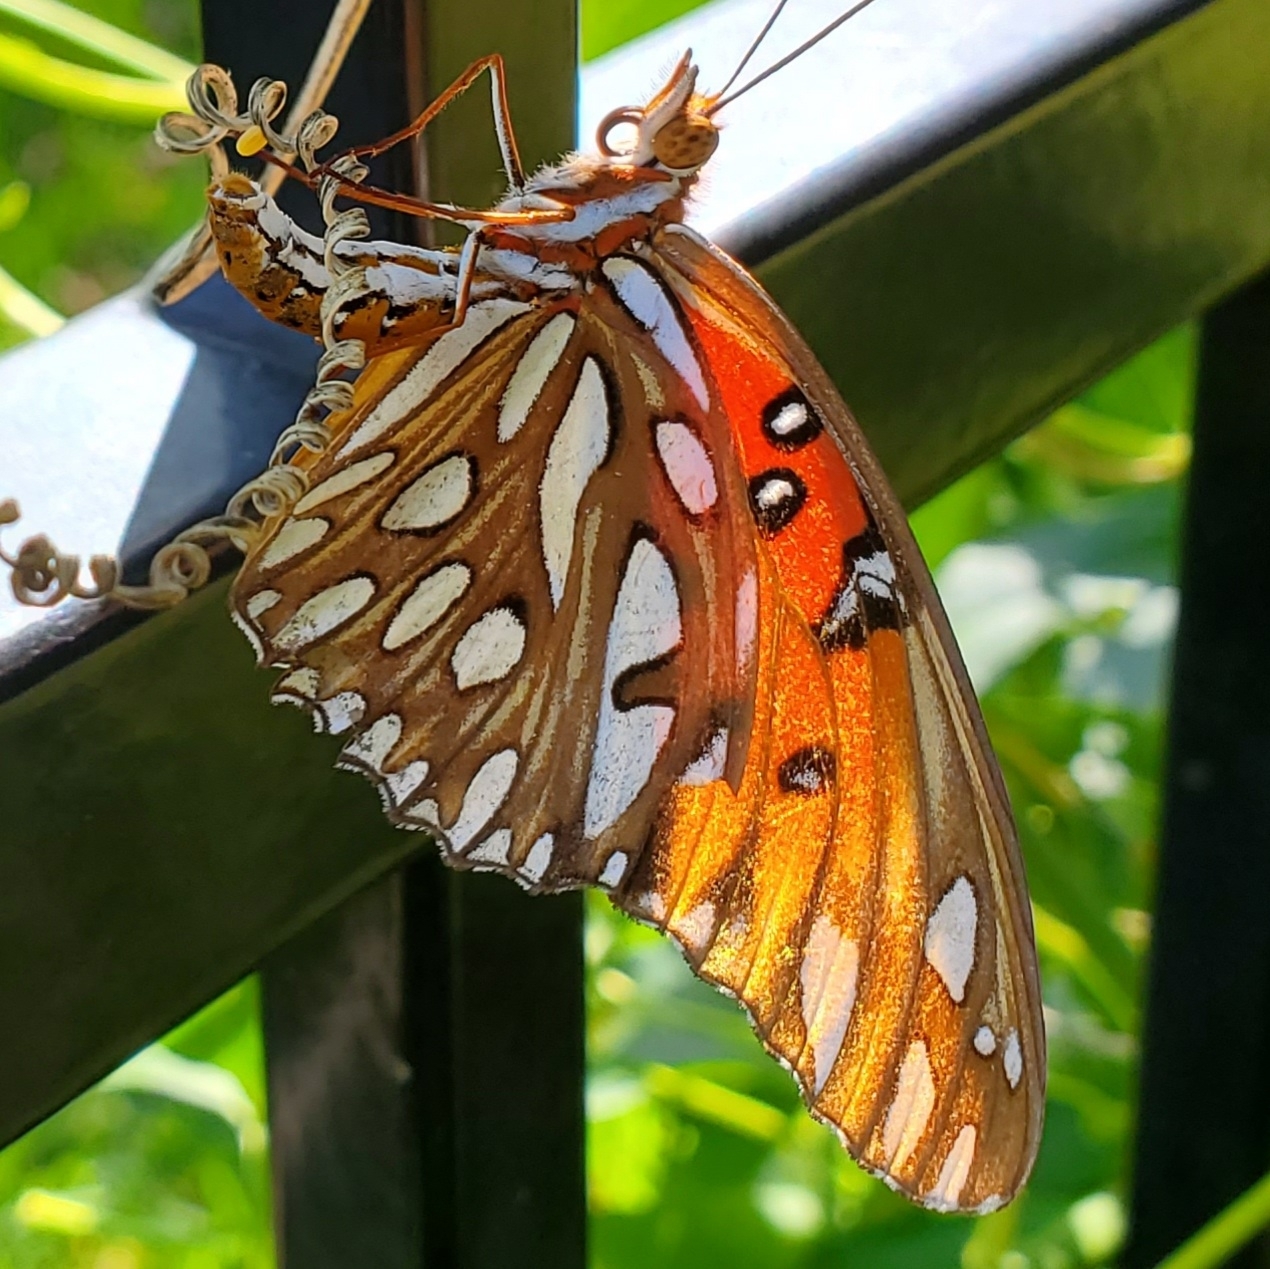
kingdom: Animalia
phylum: Arthropoda
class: Insecta
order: Lepidoptera
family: Nymphalidae
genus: Dione
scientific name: Dione vanillae
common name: Gulf fritillary
